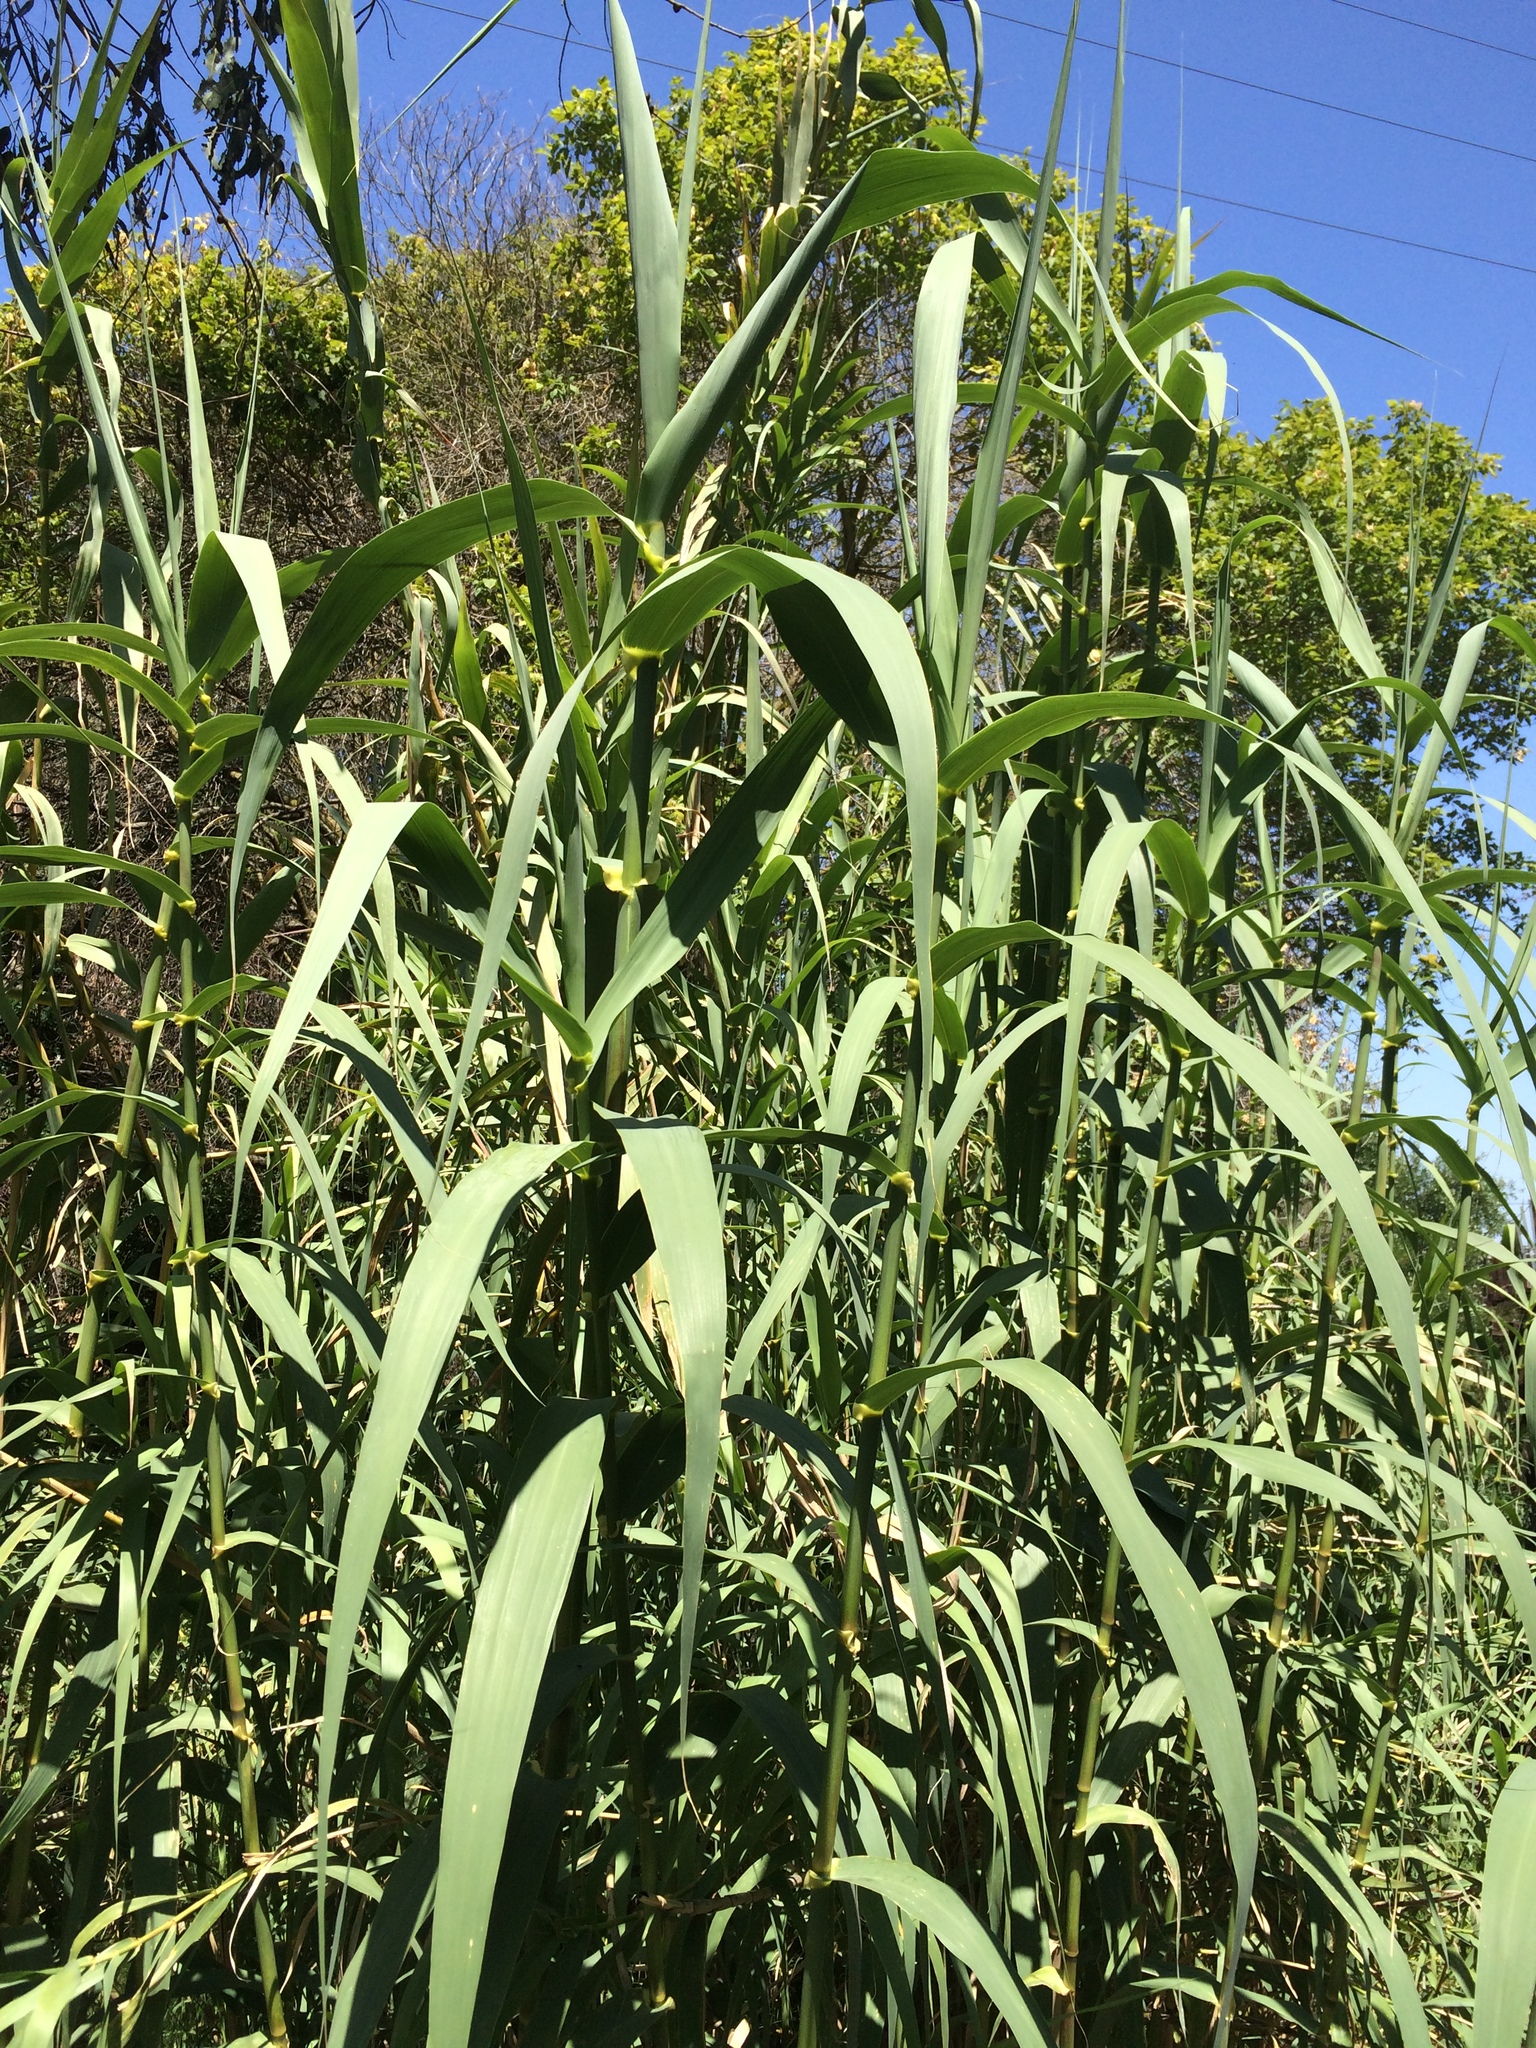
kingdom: Plantae
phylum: Tracheophyta
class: Liliopsida
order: Poales
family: Poaceae
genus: Arundo
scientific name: Arundo donax
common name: Giant reed
